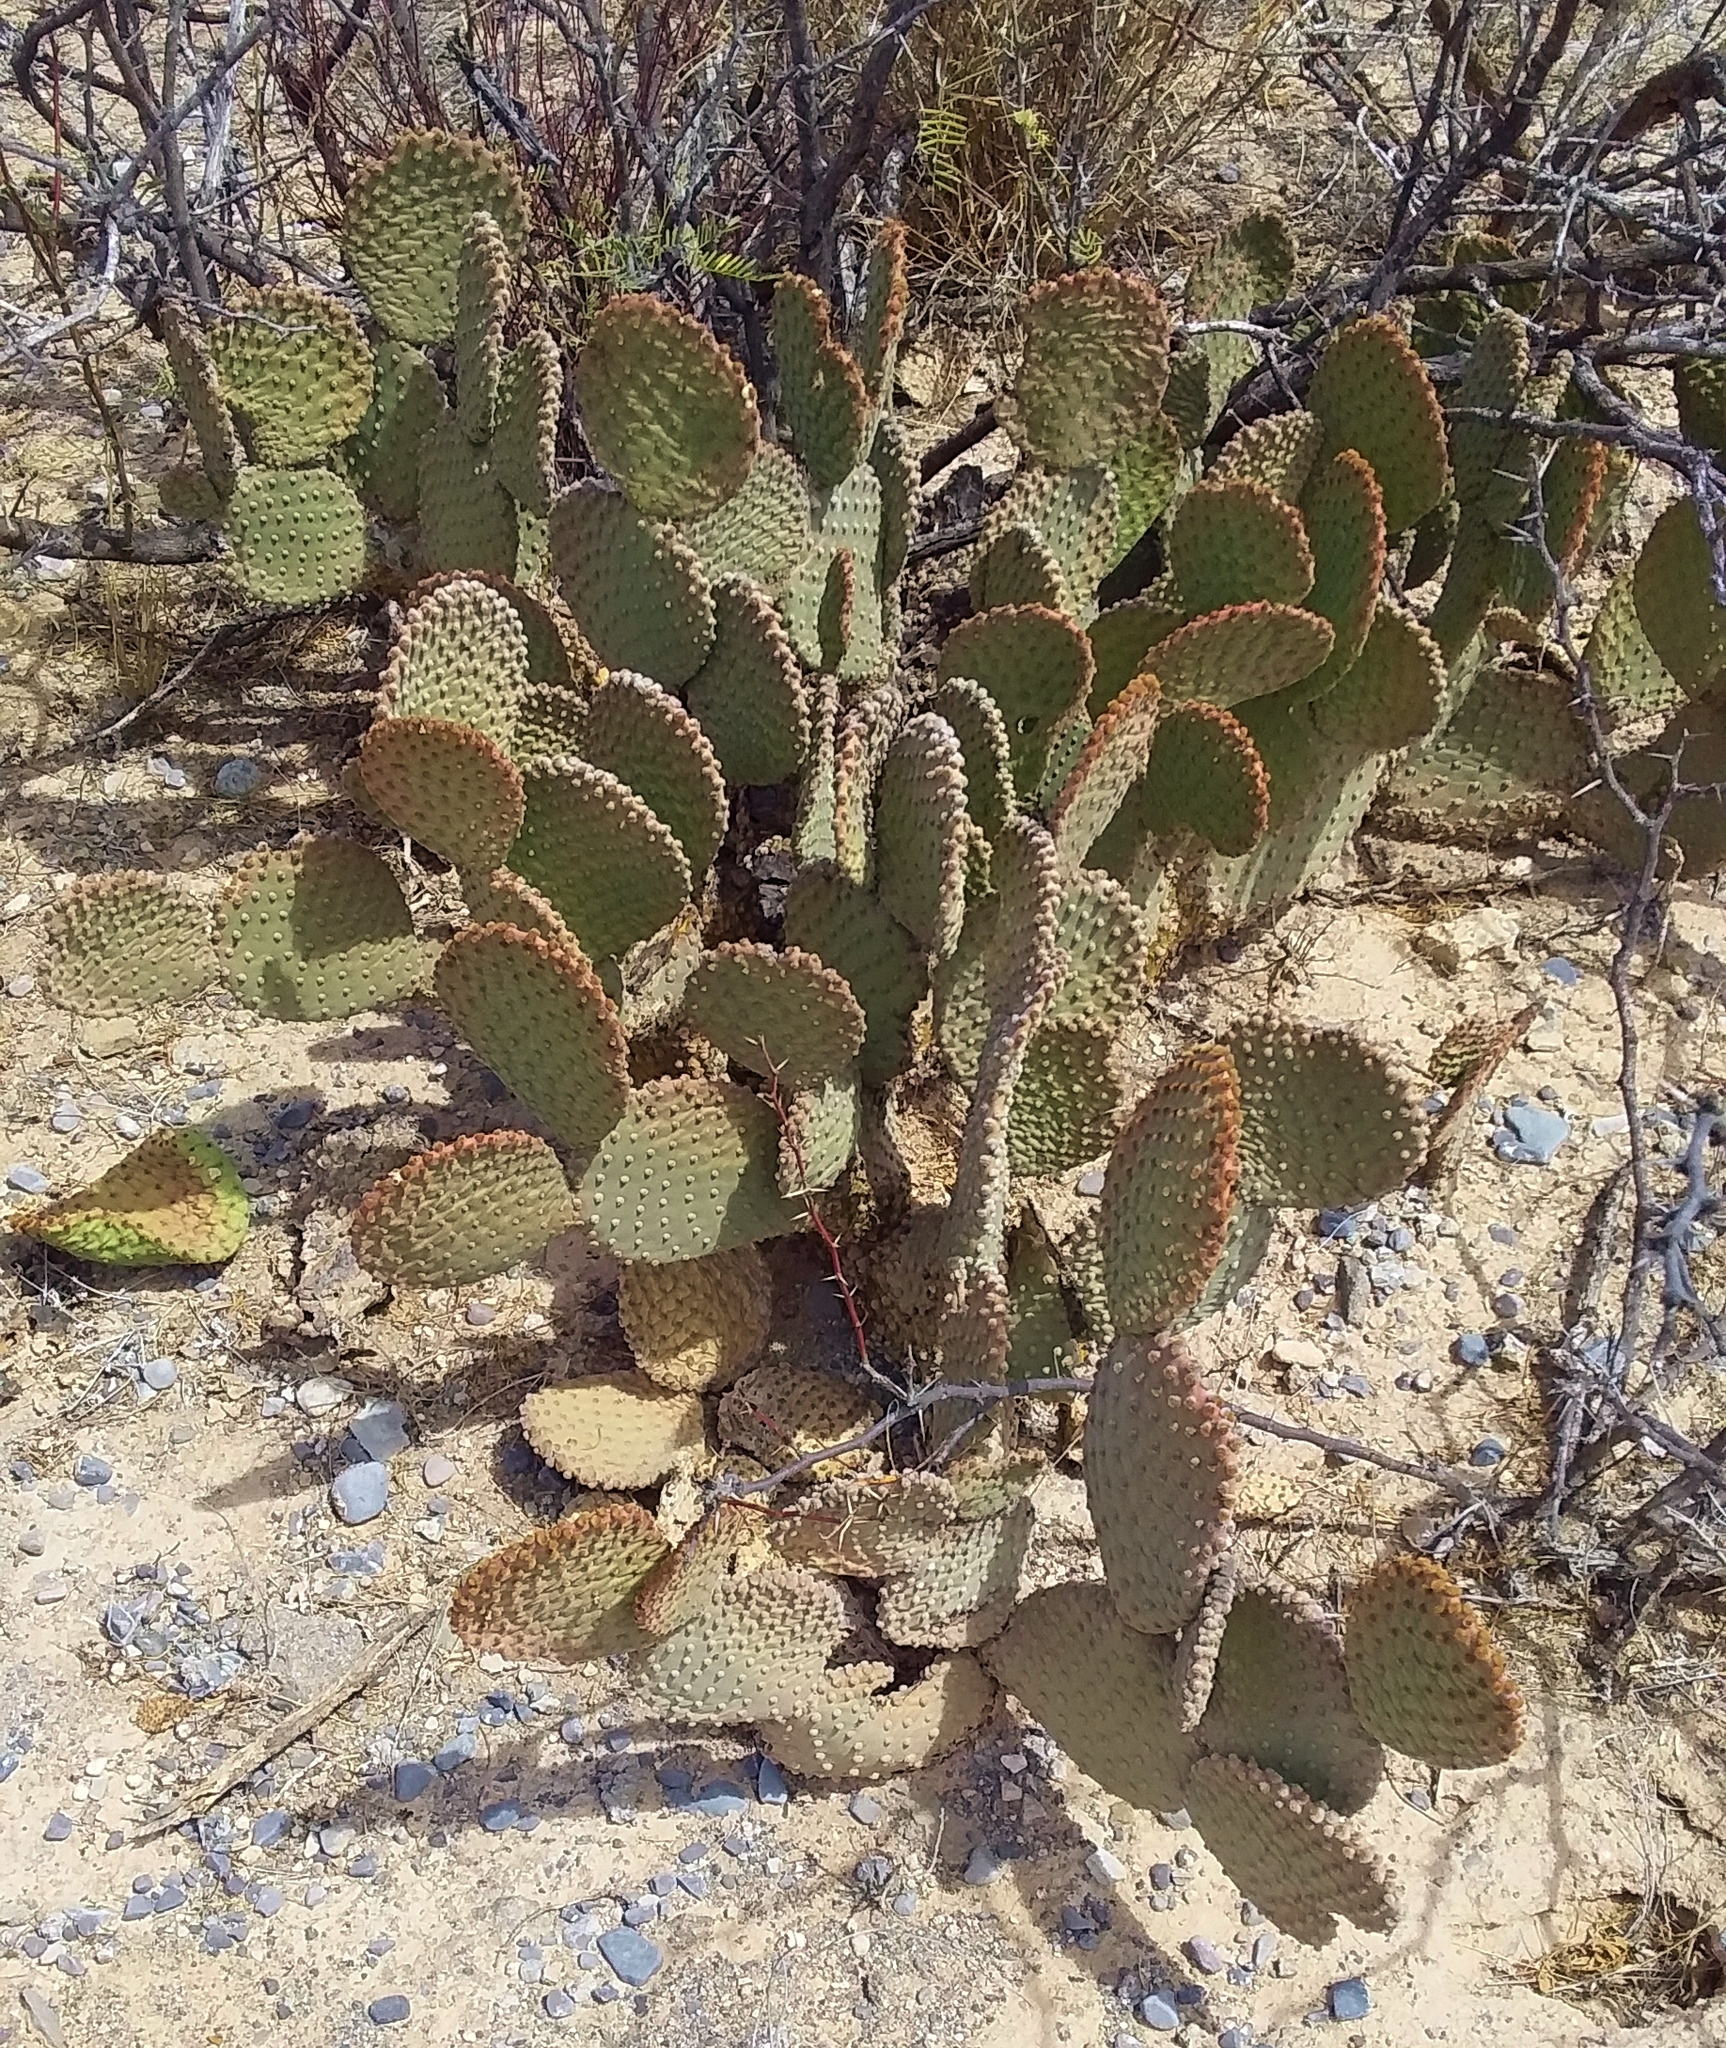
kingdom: Plantae
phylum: Tracheophyta
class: Magnoliopsida
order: Caryophyllales
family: Cactaceae
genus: Opuntia
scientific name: Opuntia microdasys
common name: Angel's-wings
